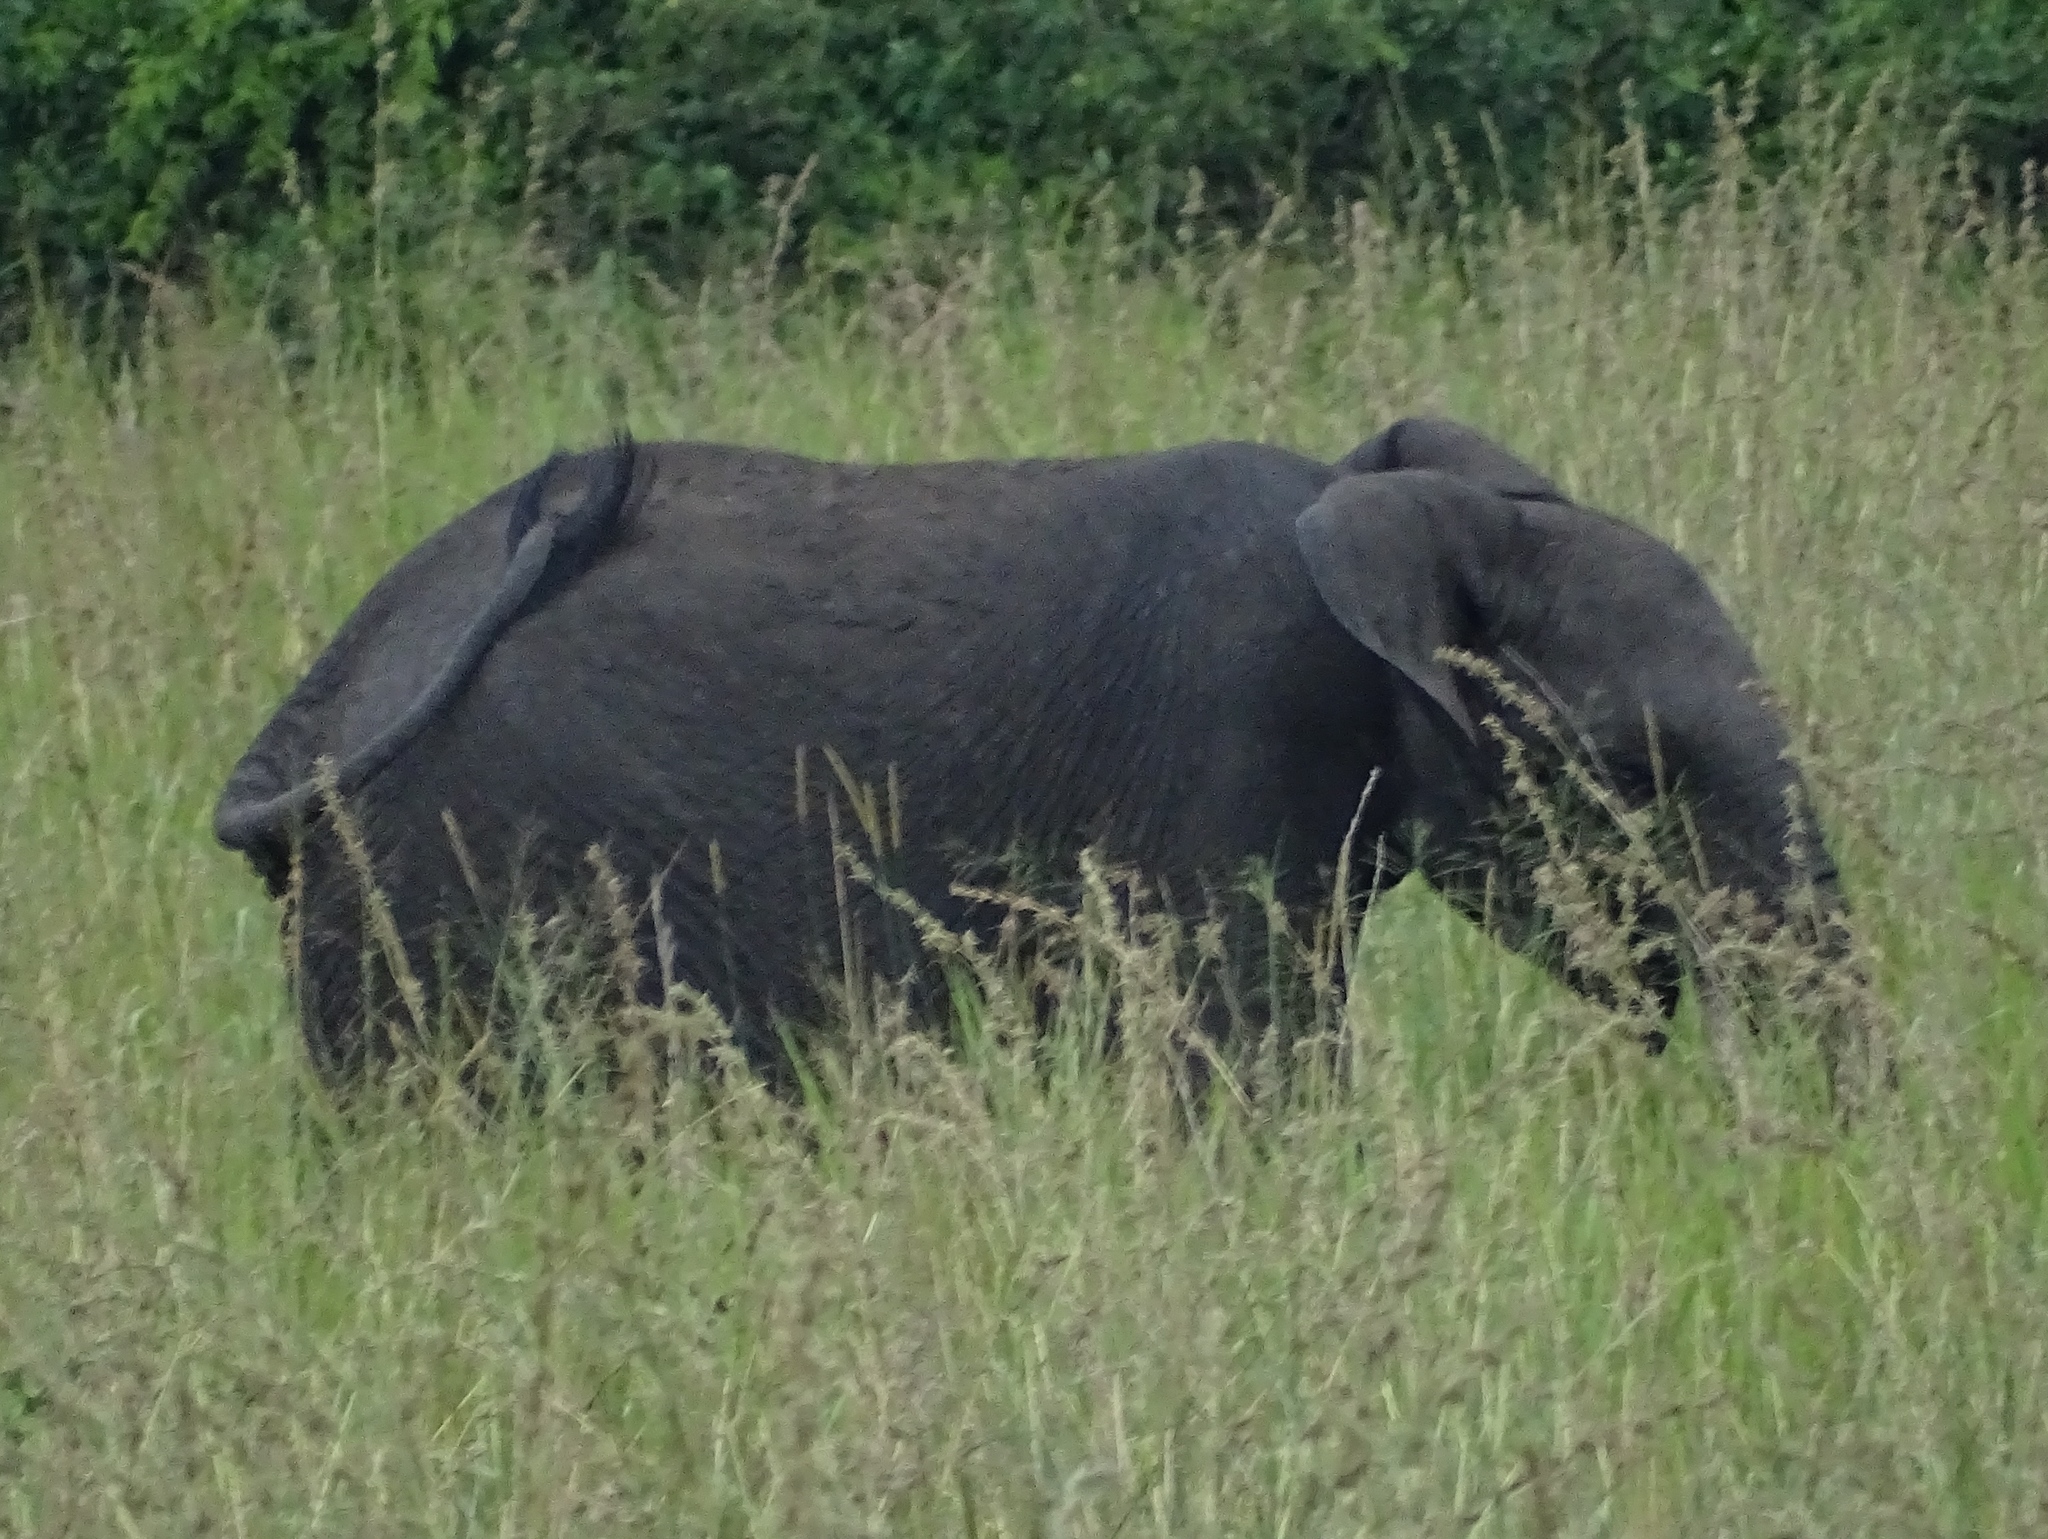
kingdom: Animalia
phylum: Chordata
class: Mammalia
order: Proboscidea
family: Elephantidae
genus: Loxodonta
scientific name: Loxodonta africana
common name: African elephant
